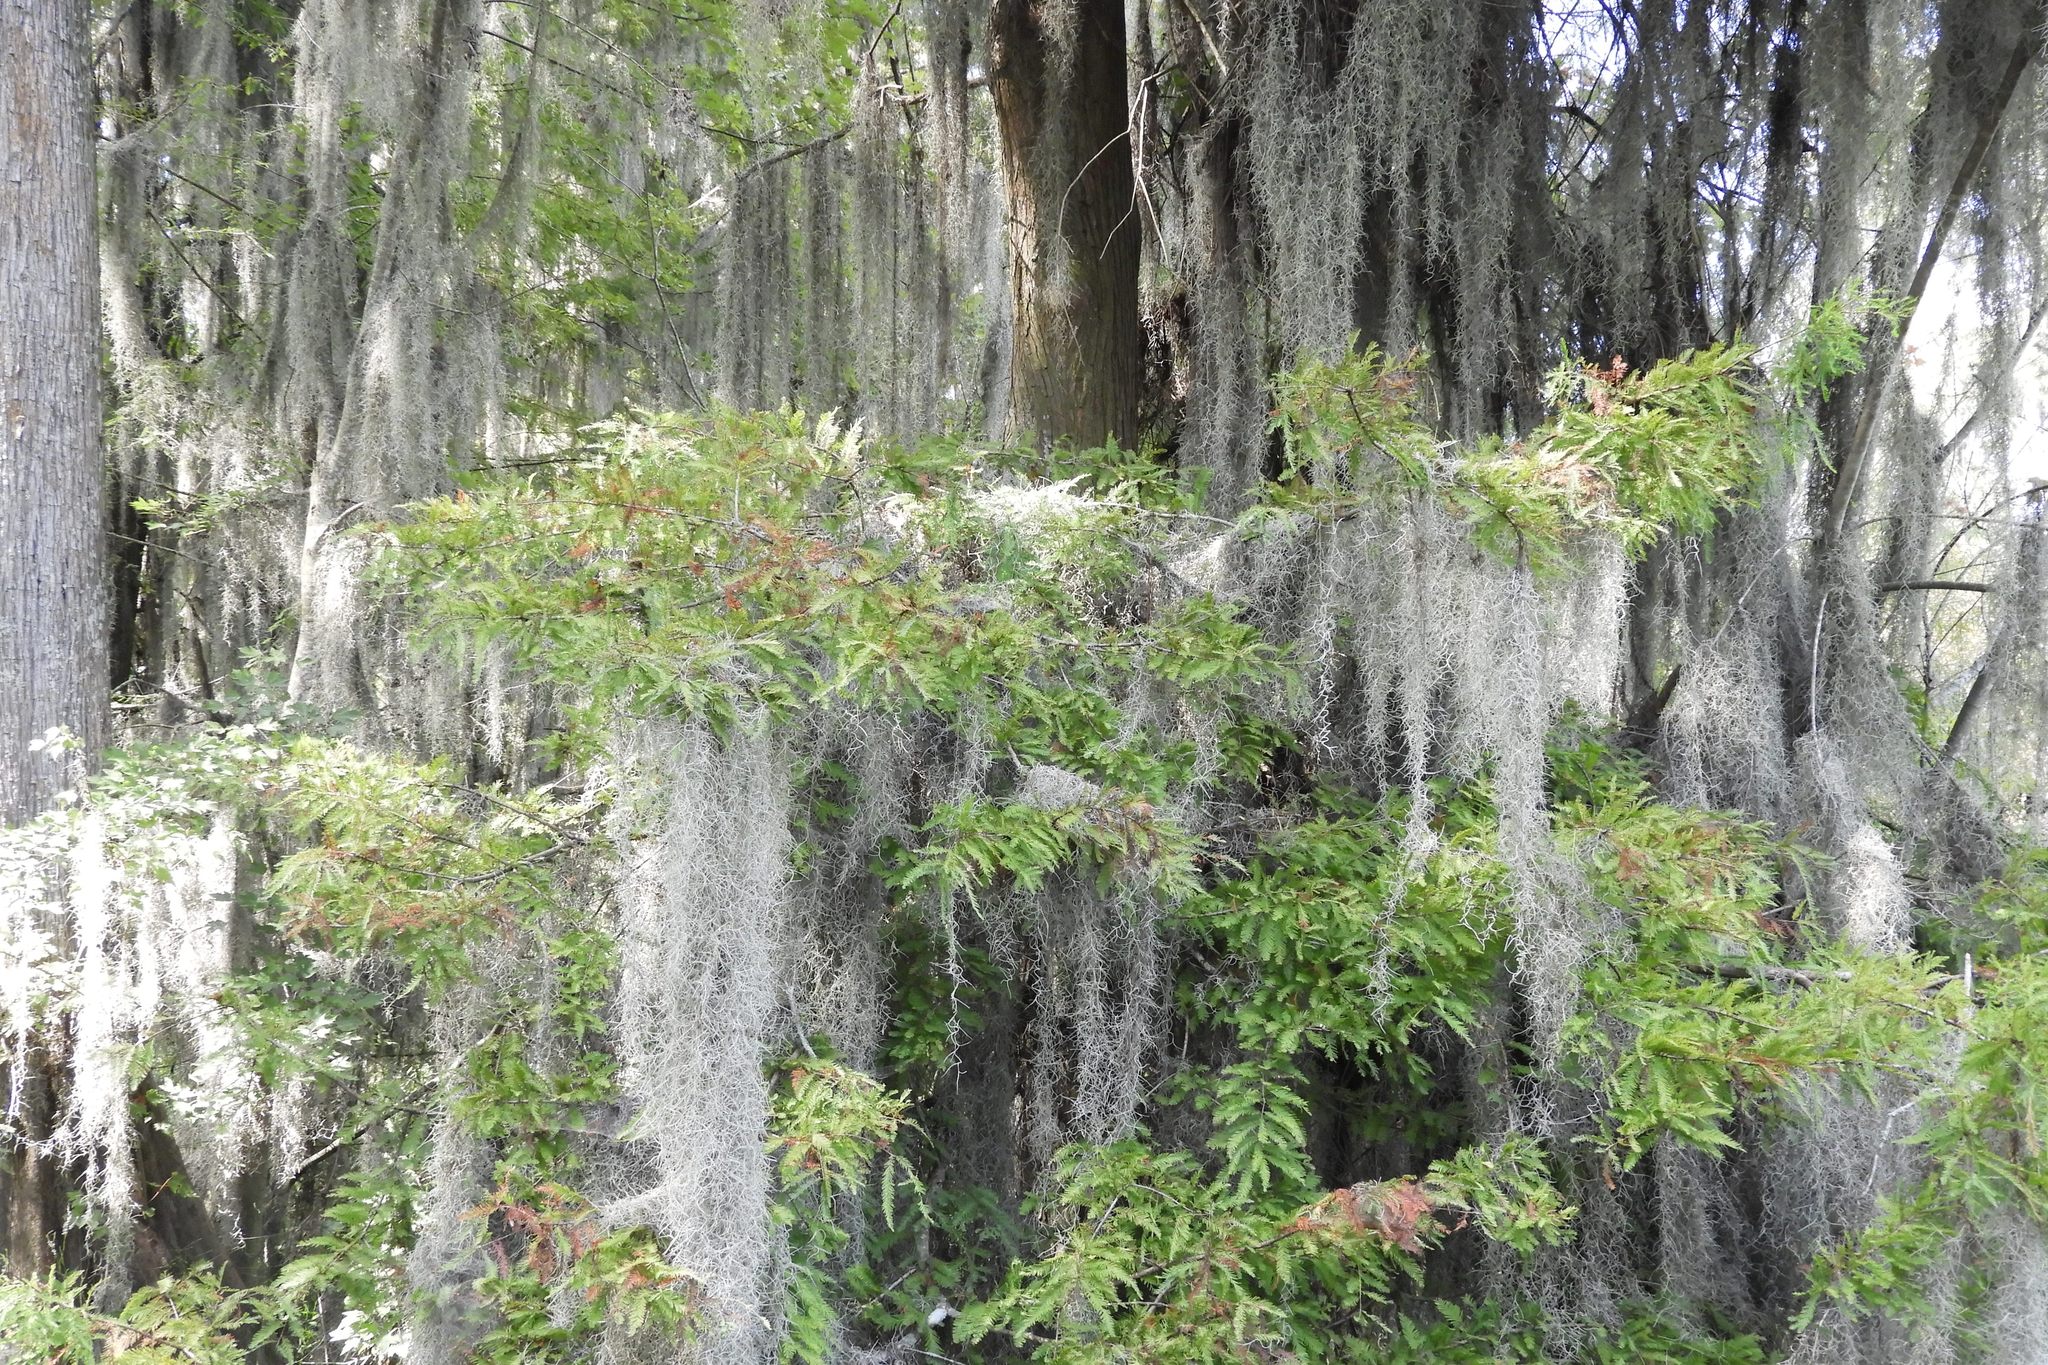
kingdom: Plantae
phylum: Tracheophyta
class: Liliopsida
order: Poales
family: Bromeliaceae
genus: Tillandsia
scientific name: Tillandsia usneoides
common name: Spanish moss
